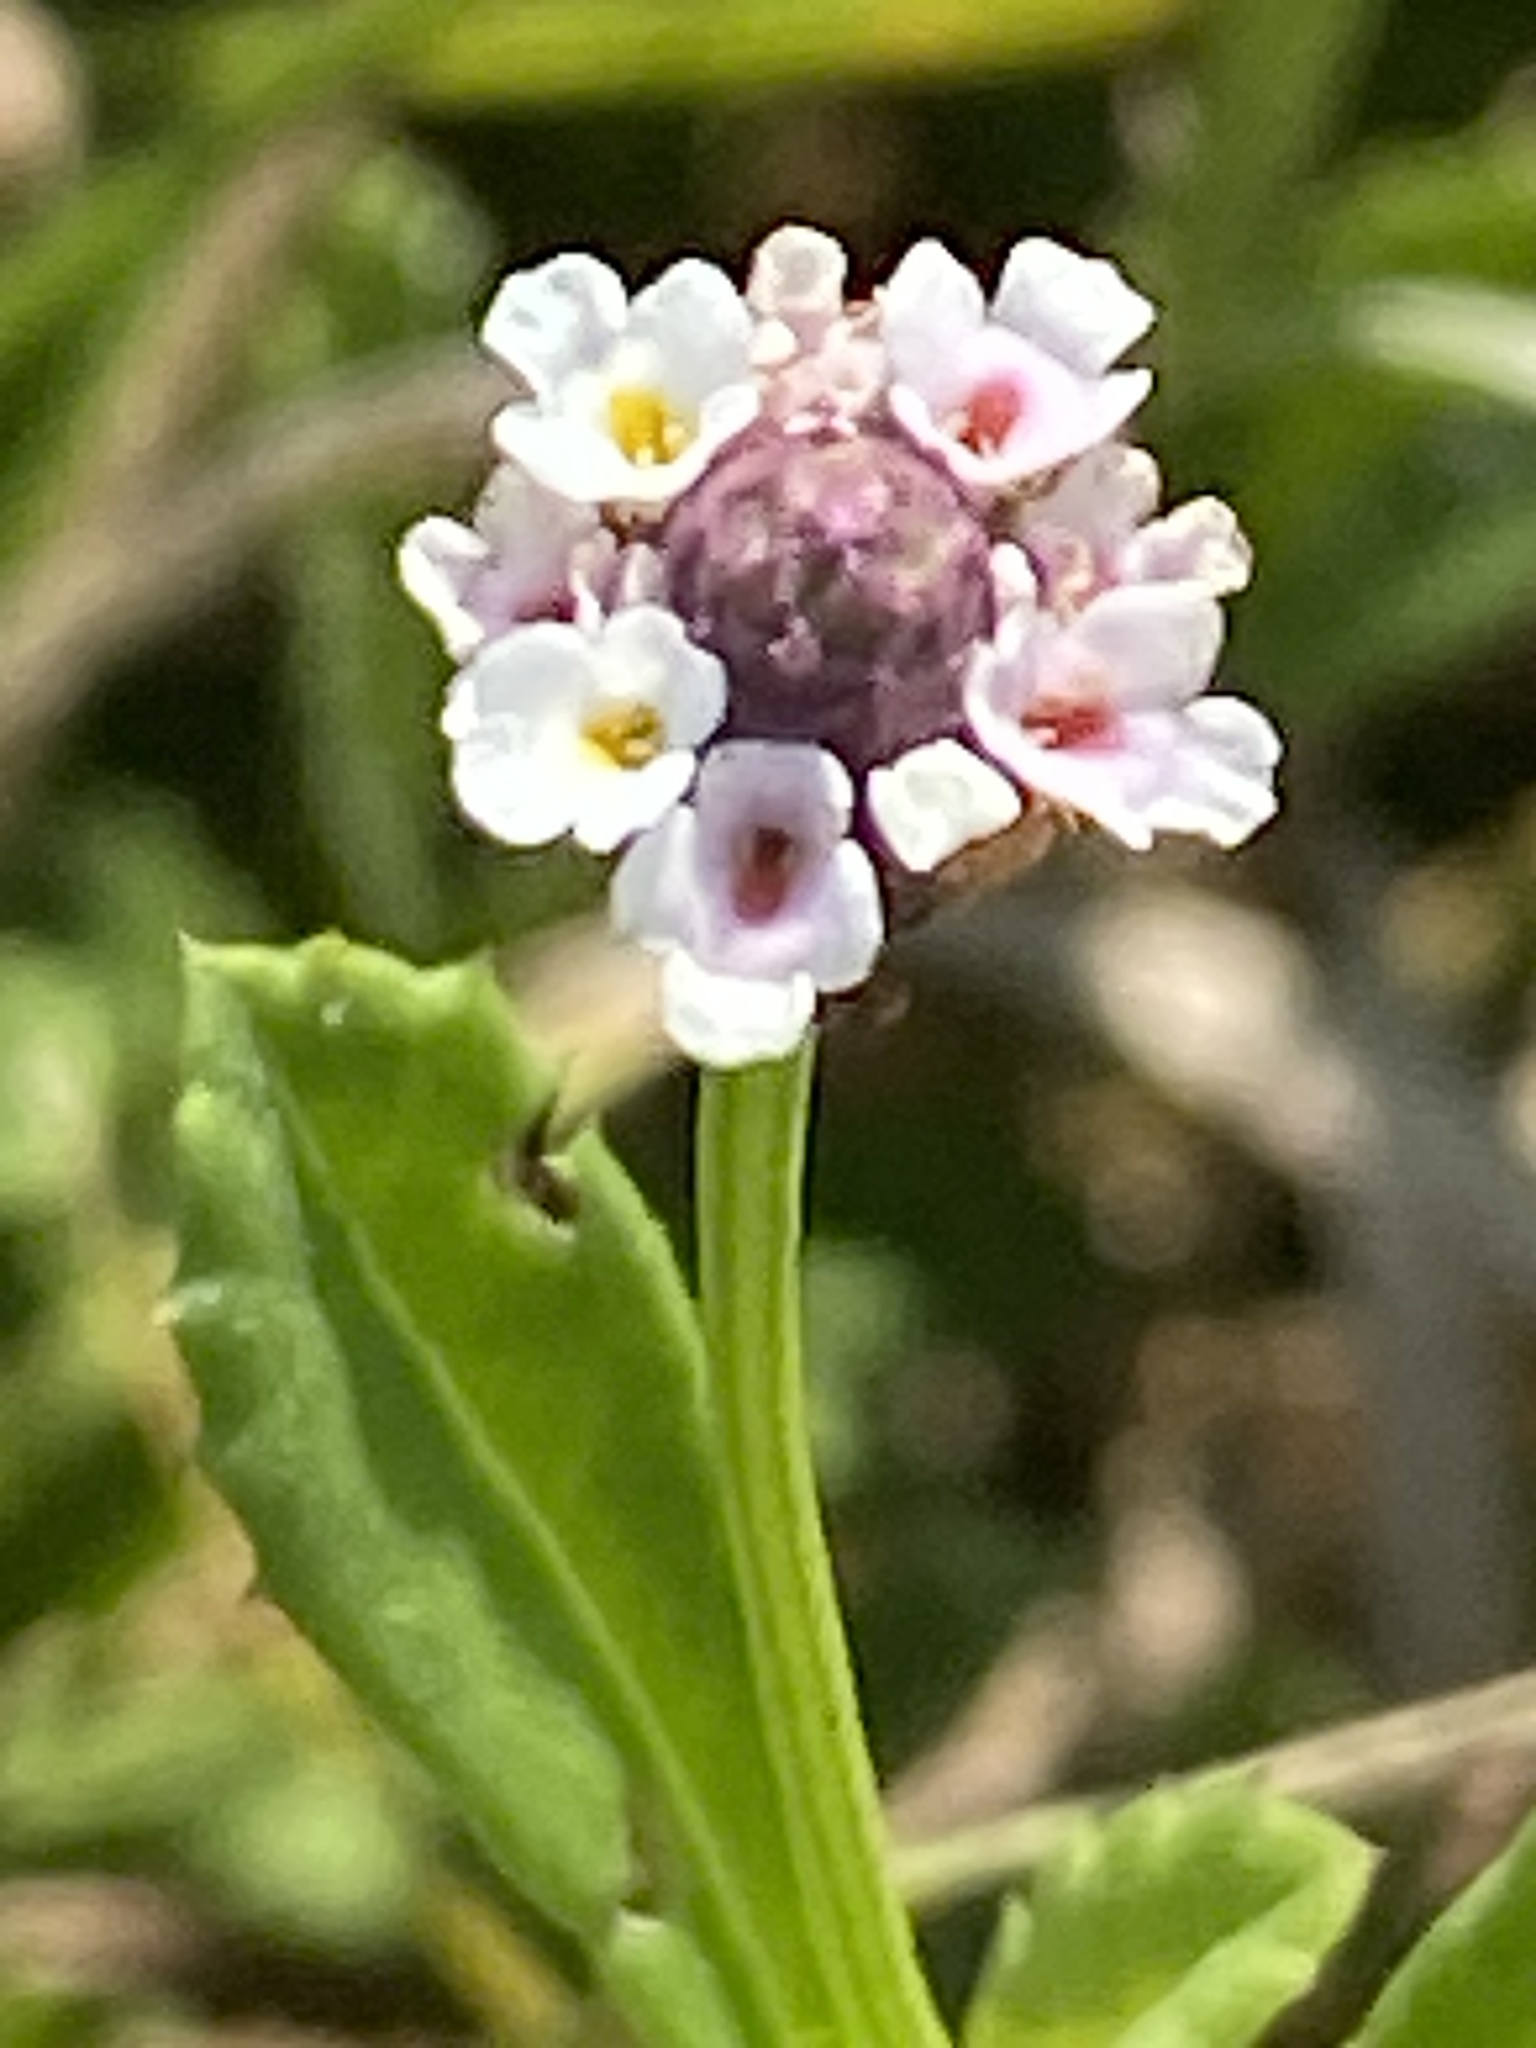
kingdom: Plantae
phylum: Tracheophyta
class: Magnoliopsida
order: Lamiales
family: Verbenaceae
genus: Phyla
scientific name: Phyla nodiflora
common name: Frogfruit
